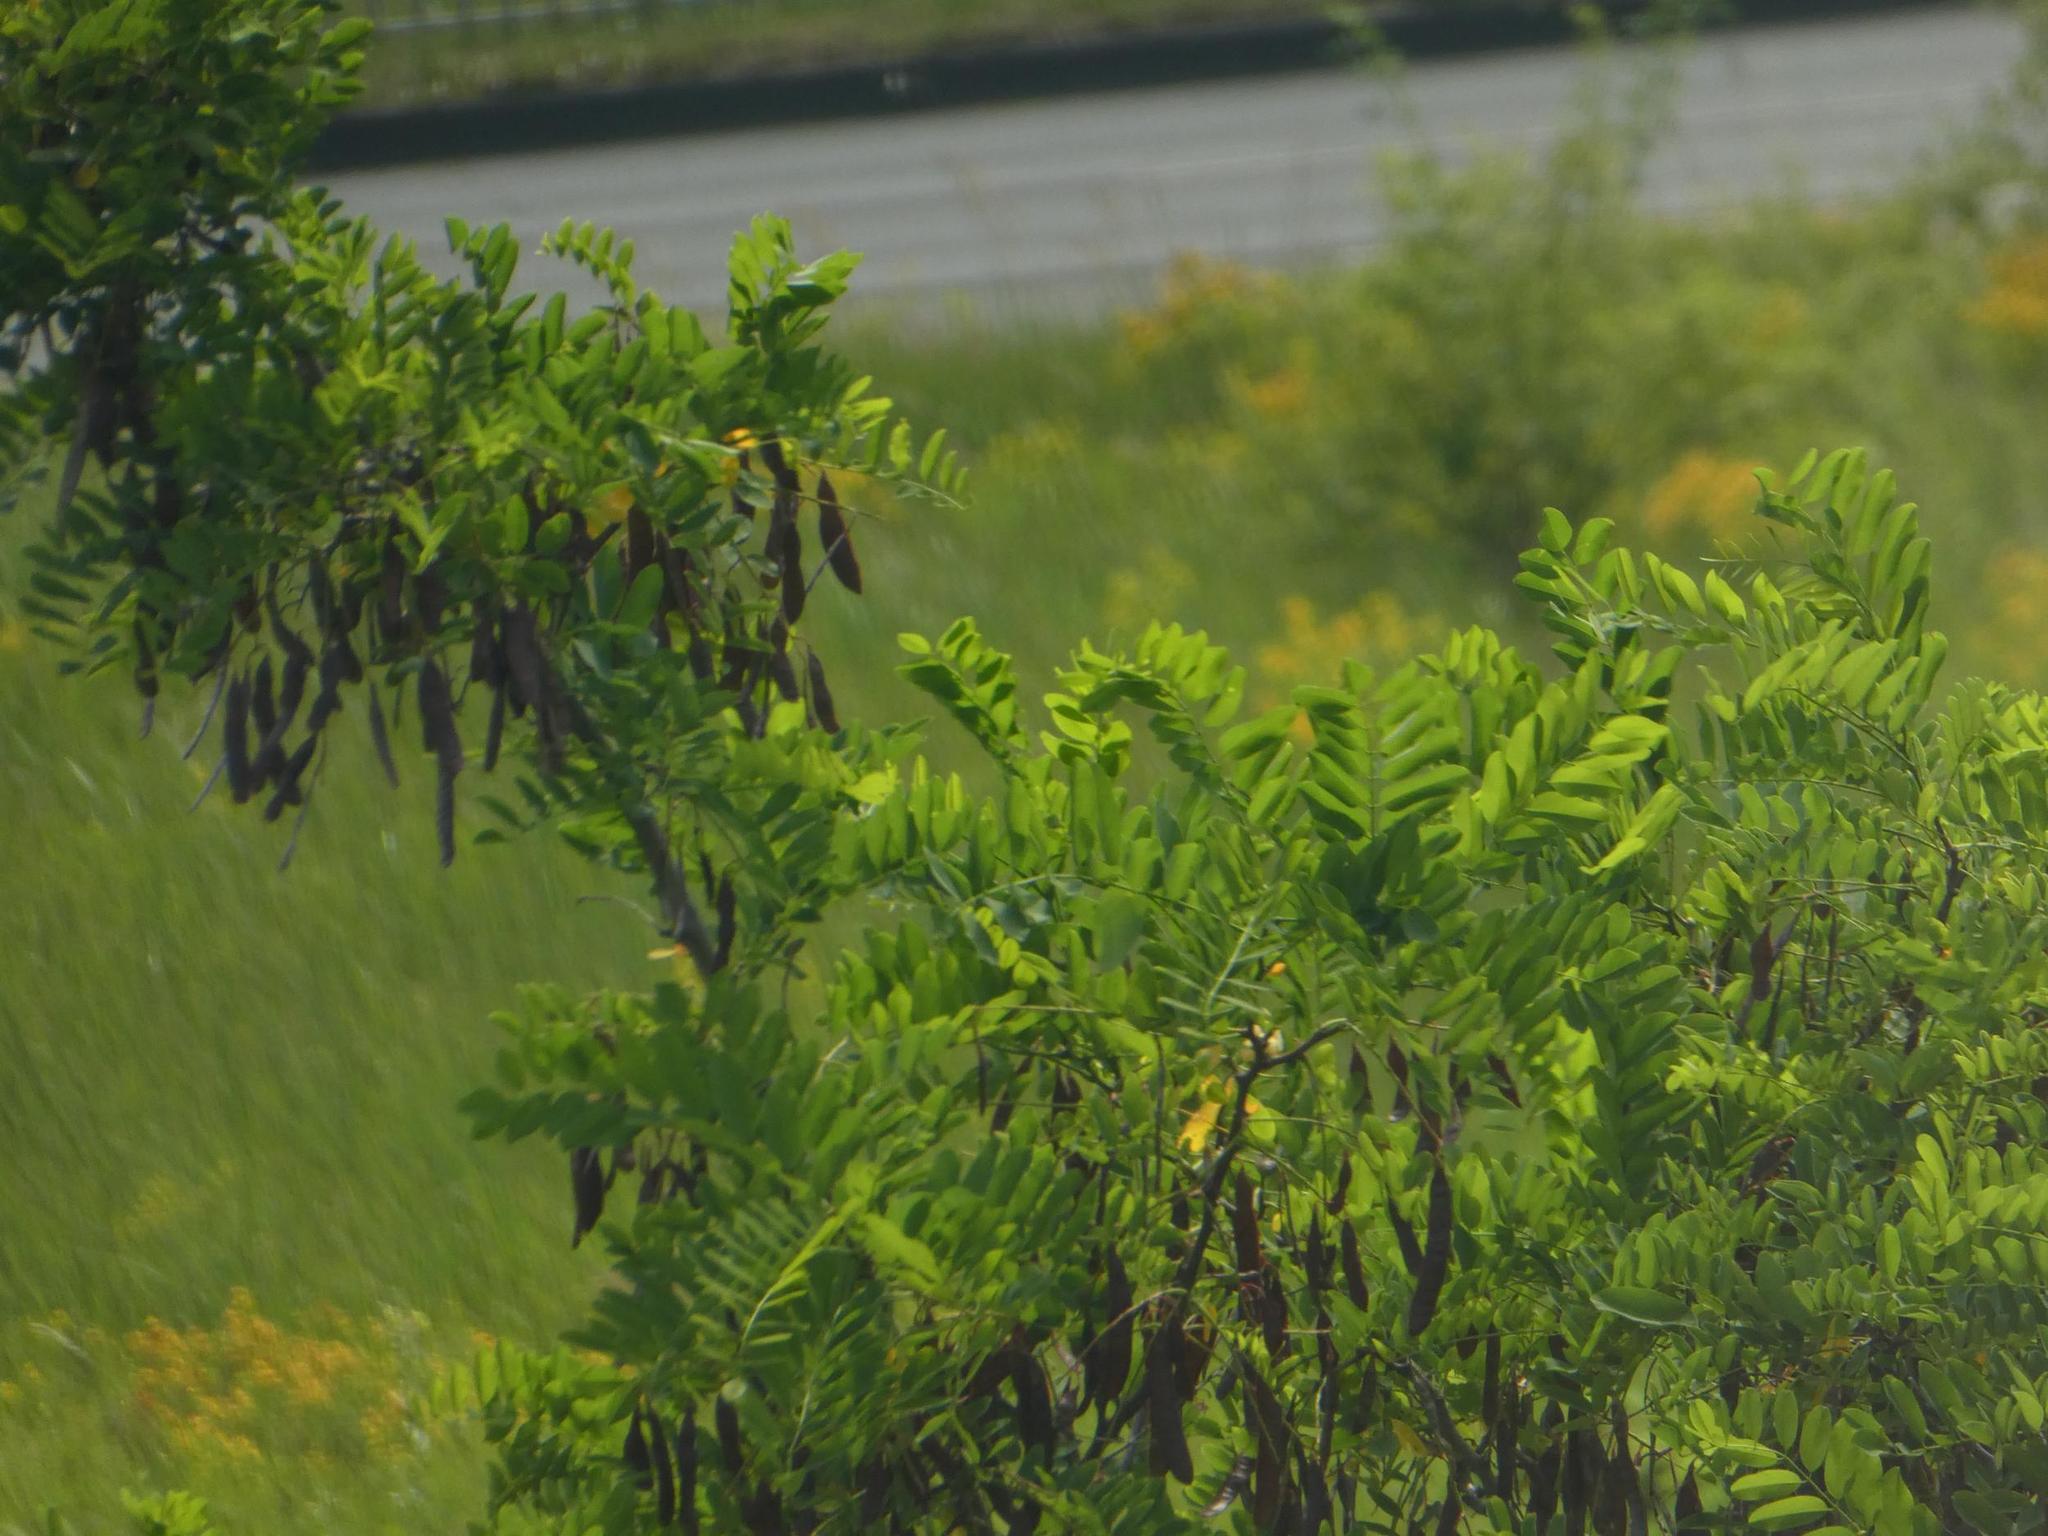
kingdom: Plantae
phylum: Tracheophyta
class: Magnoliopsida
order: Fabales
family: Fabaceae
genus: Robinia
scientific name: Robinia pseudoacacia
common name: Black locust
